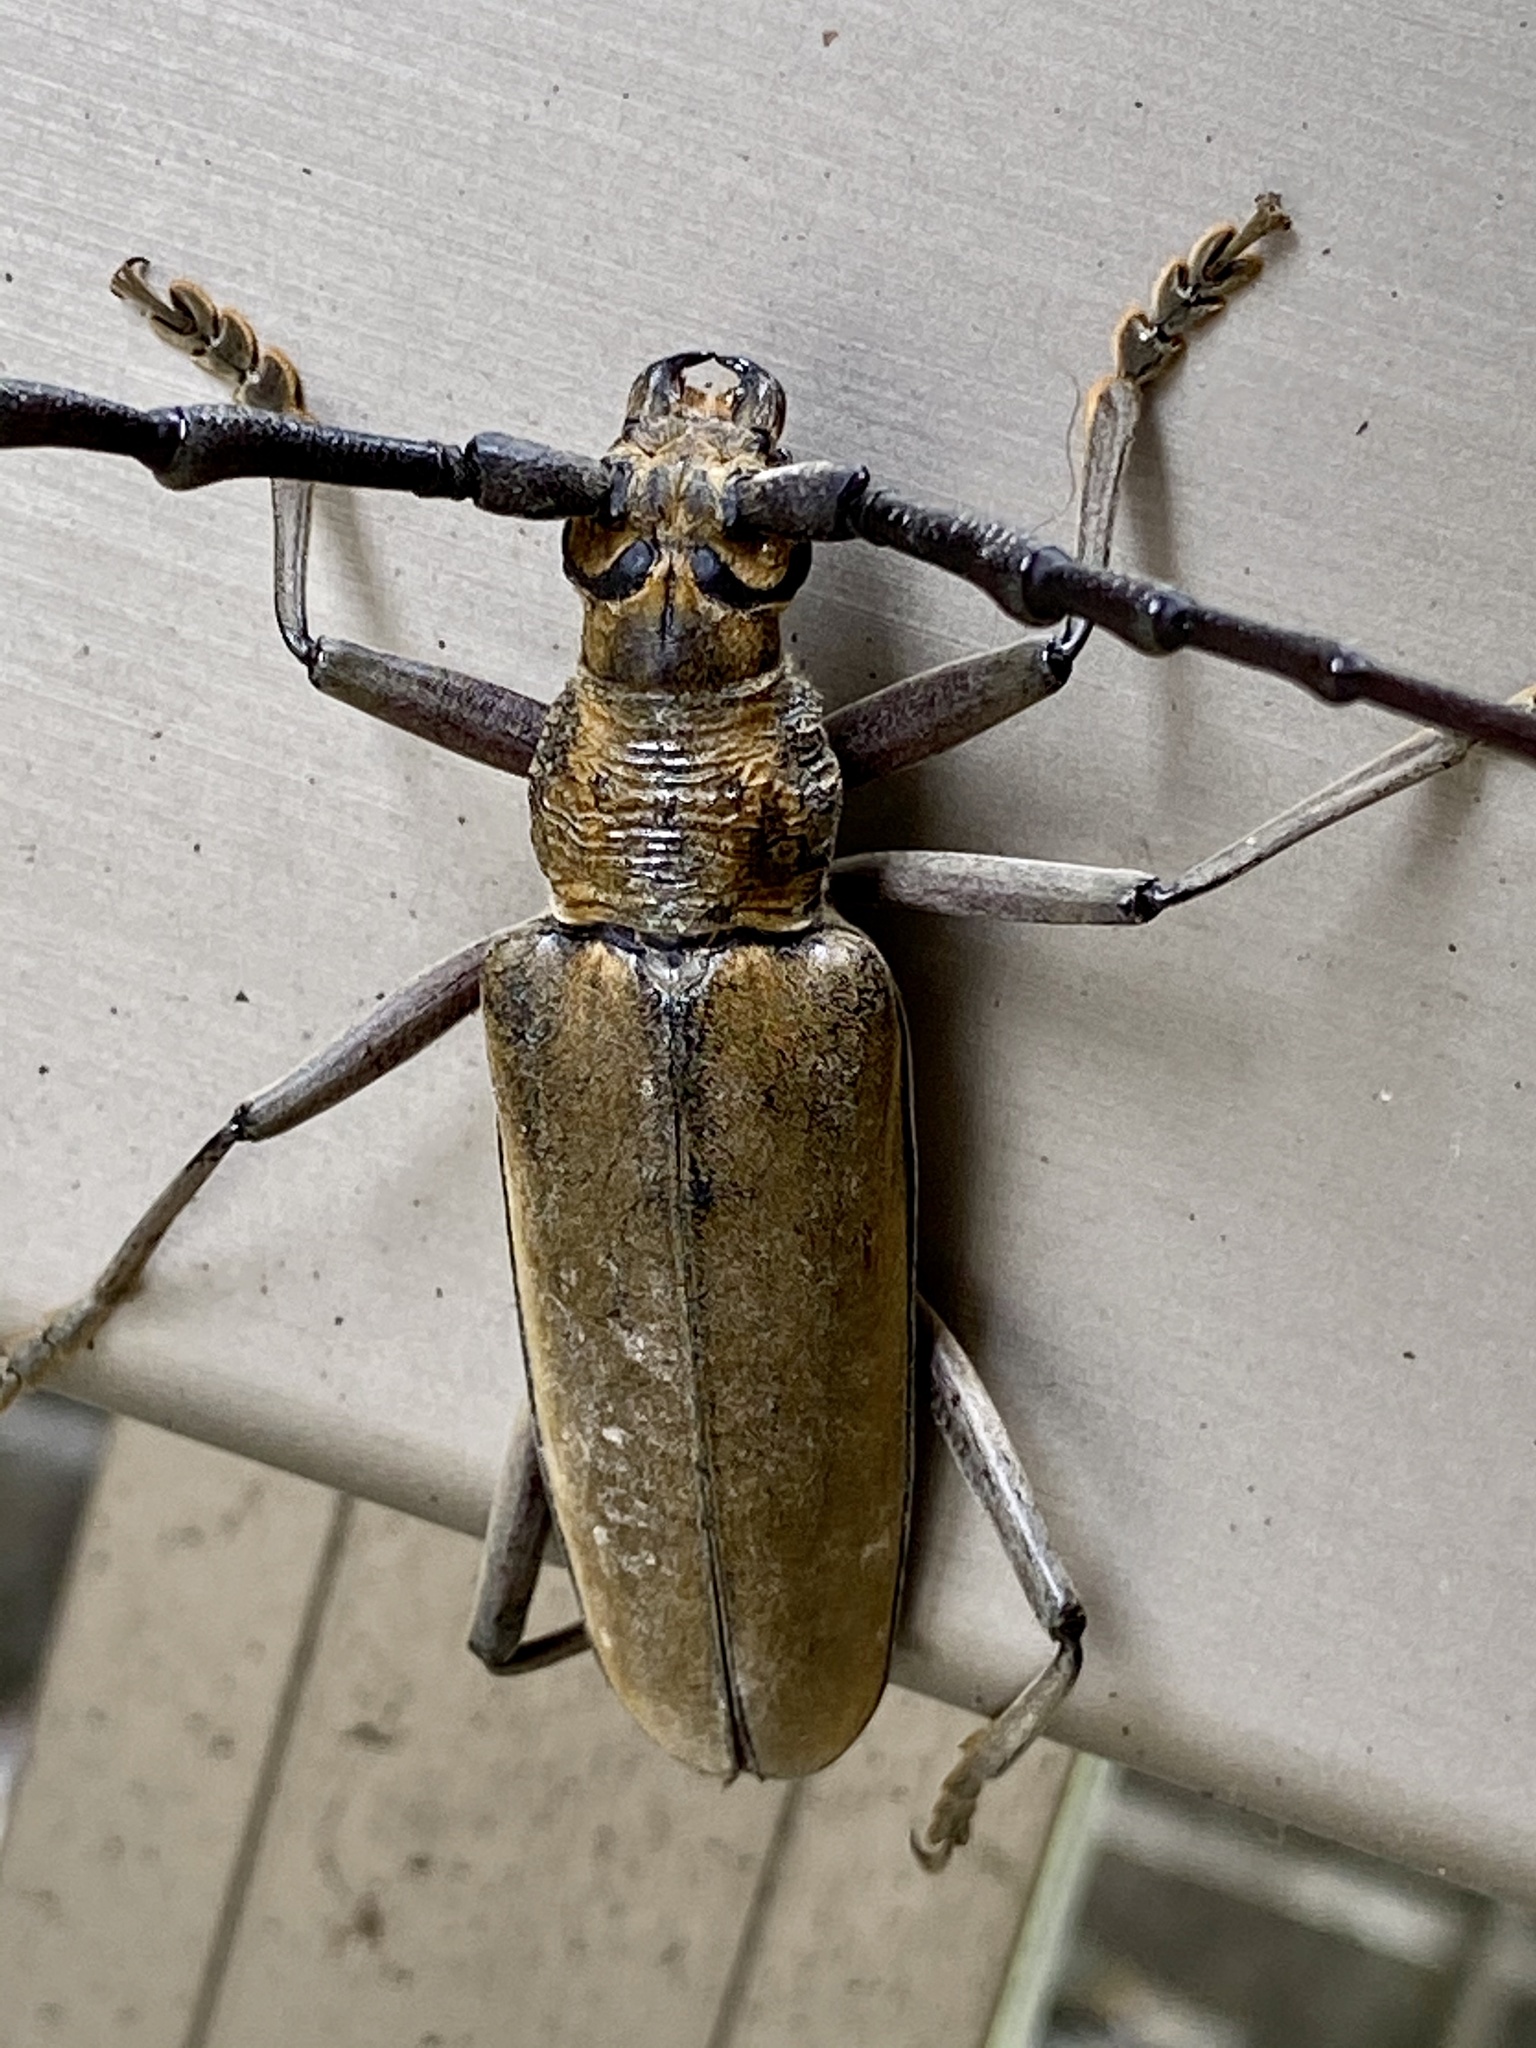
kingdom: Animalia
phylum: Arthropoda
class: Insecta
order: Coleoptera
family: Cerambycidae
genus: Neocerambyx
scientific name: Neocerambyx raddei
